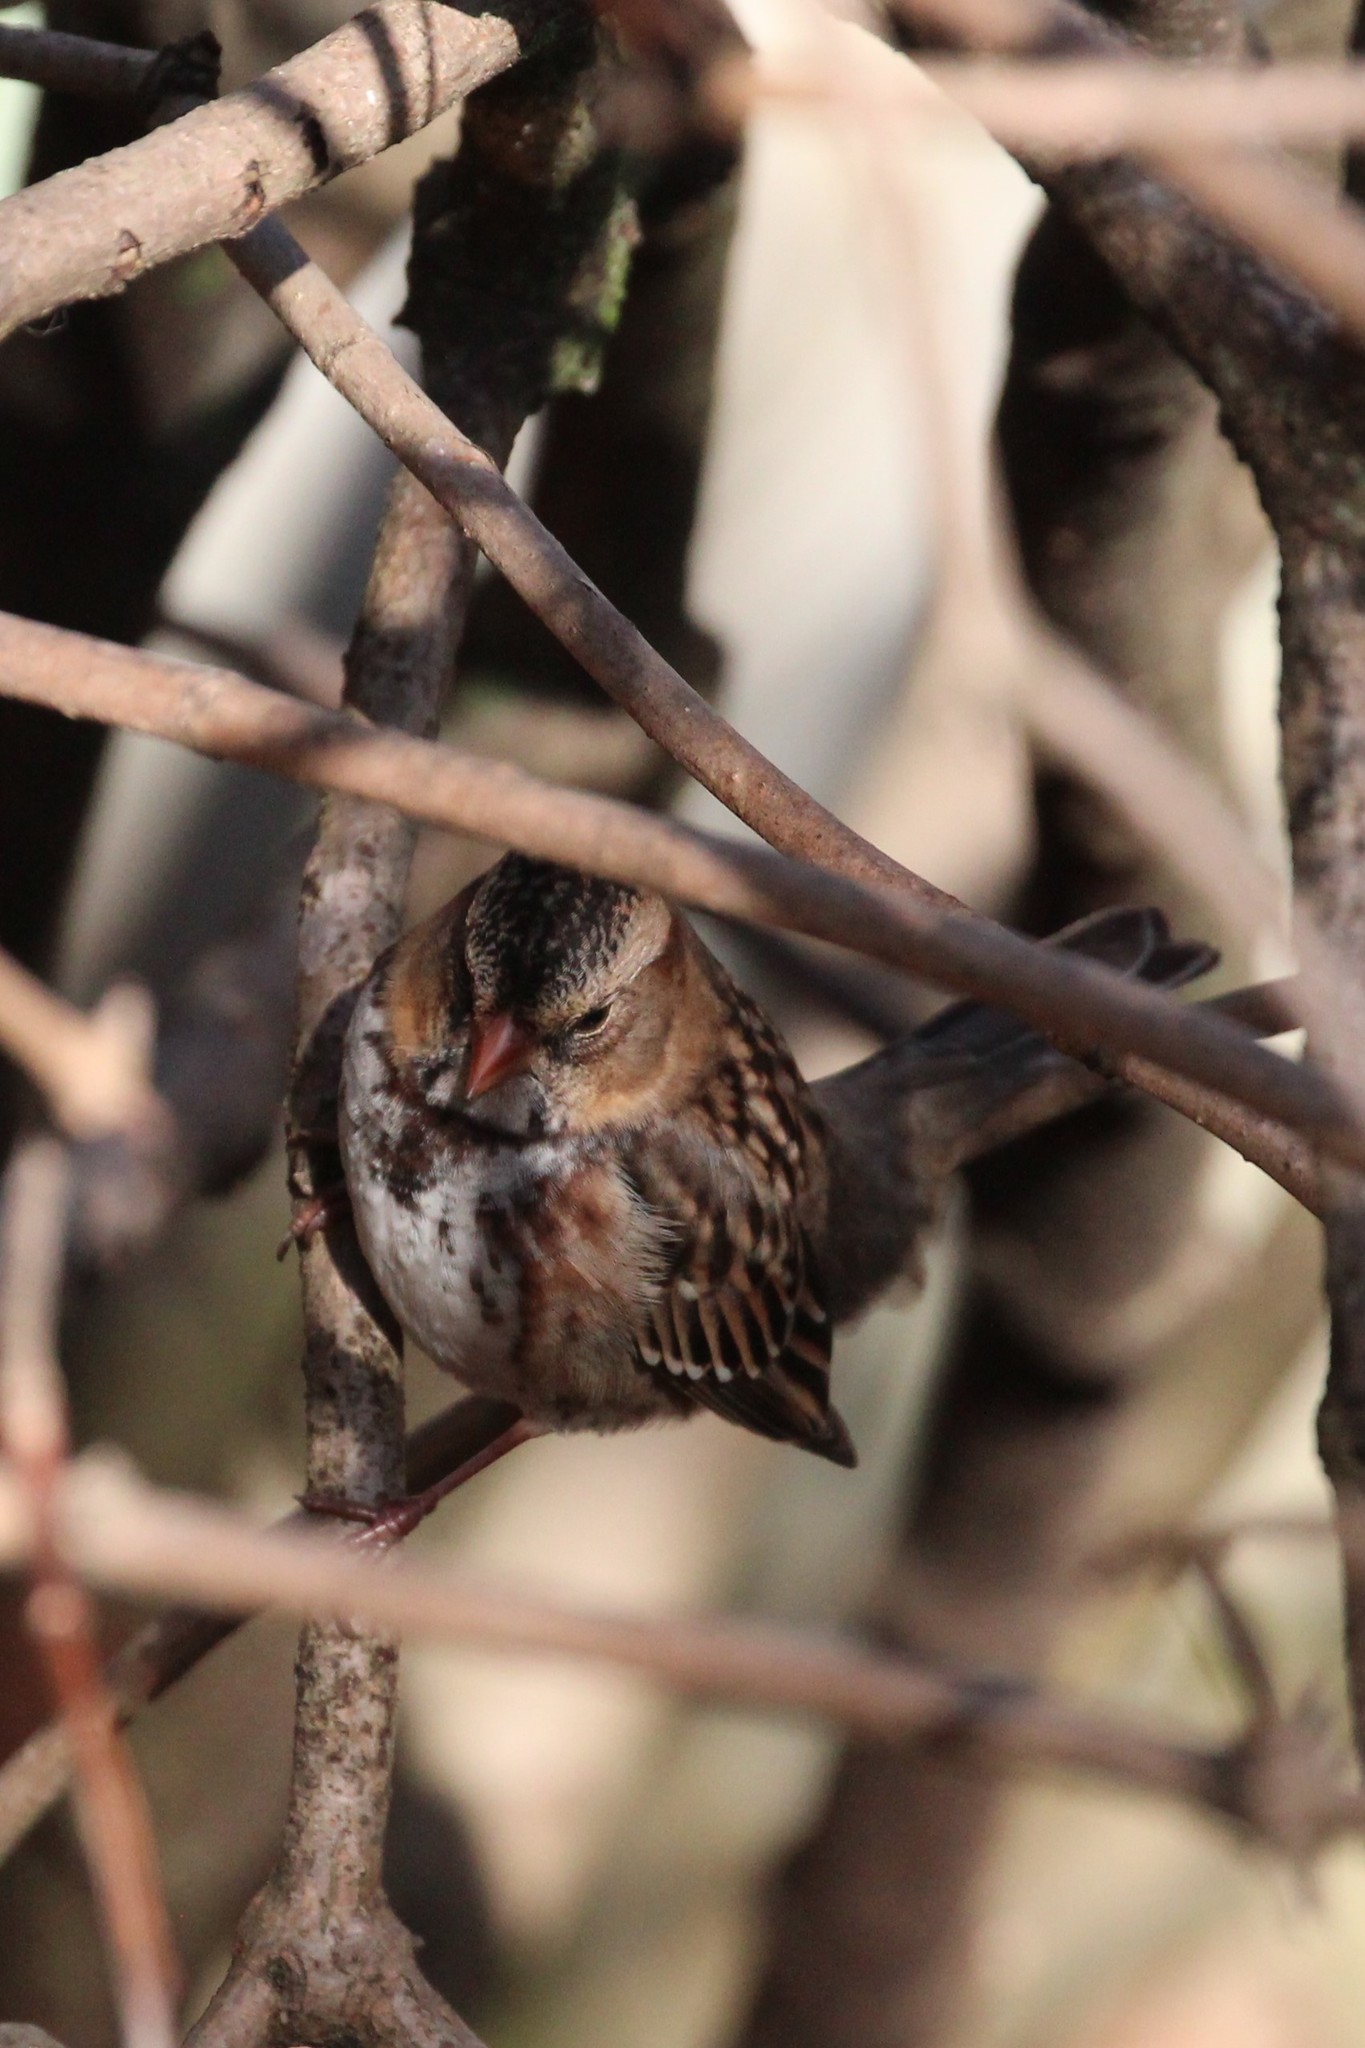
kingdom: Animalia
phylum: Chordata
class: Aves
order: Passeriformes
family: Passerellidae
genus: Zonotrichia
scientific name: Zonotrichia querula
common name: Harris's sparrow
